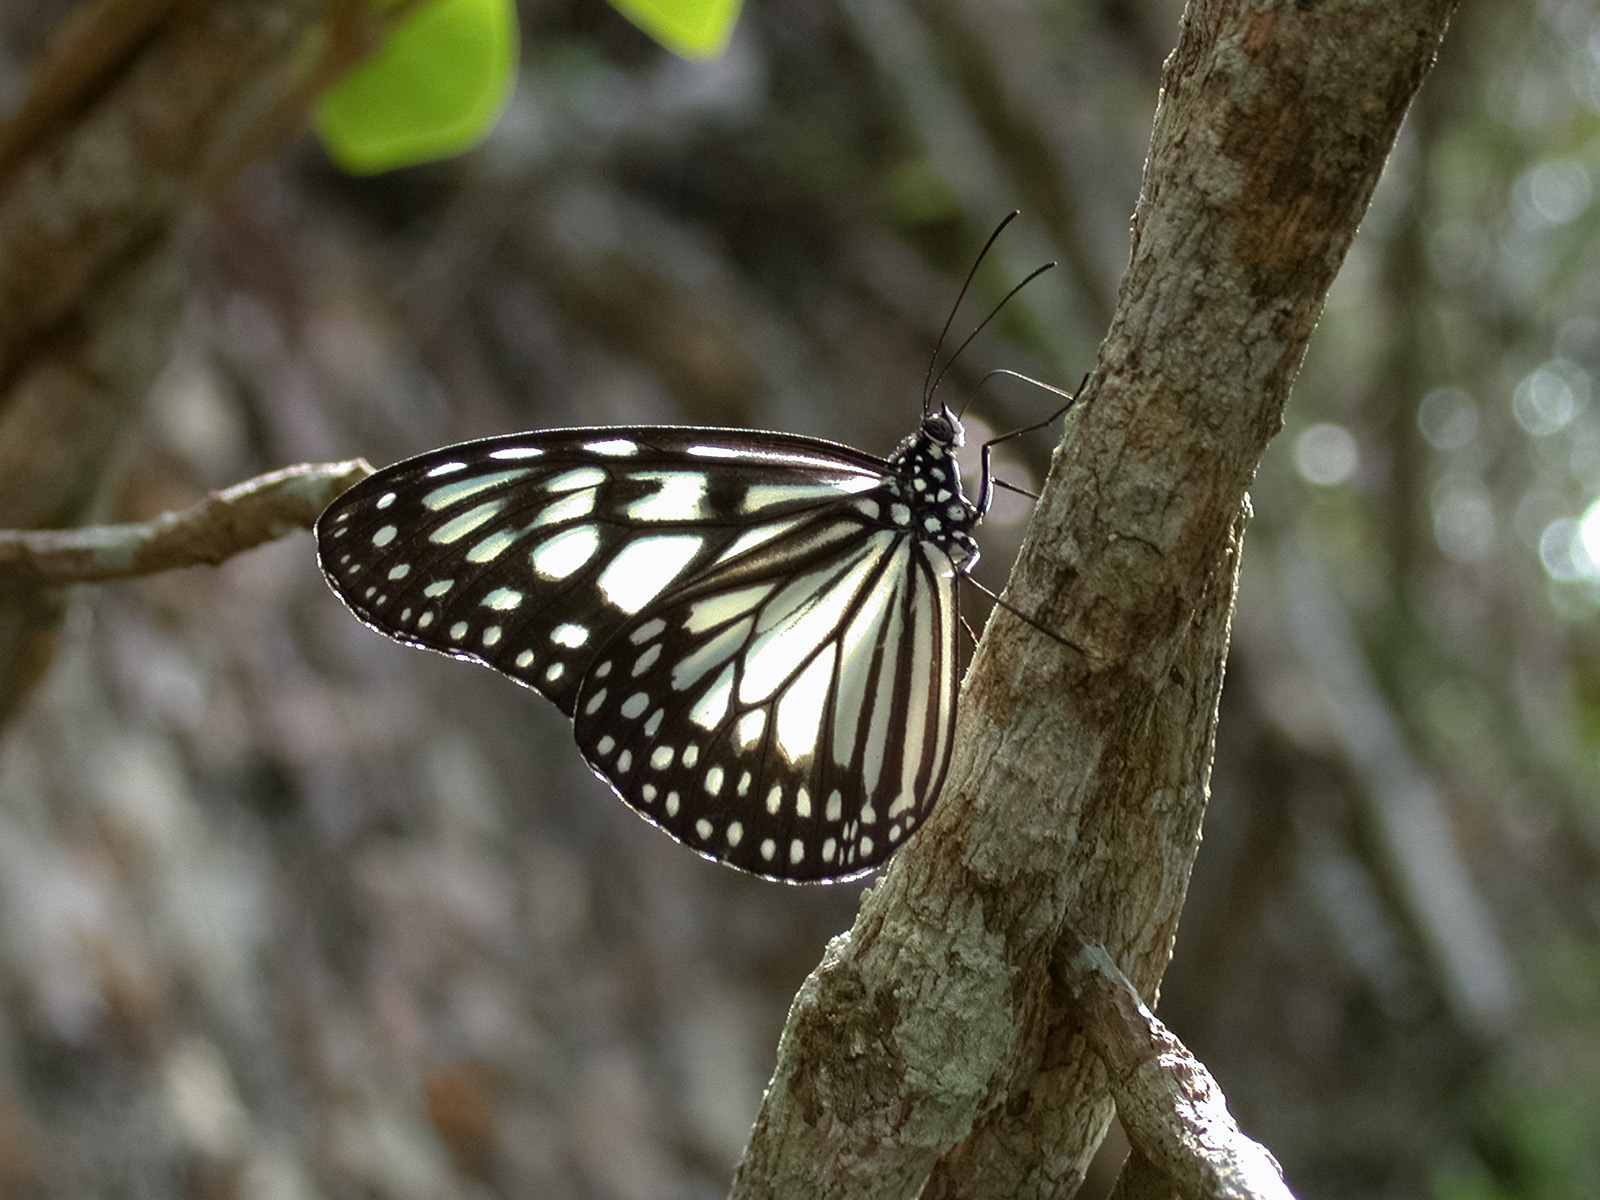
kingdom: Animalia
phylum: Arthropoda
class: Insecta
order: Lepidoptera
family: Nymphalidae
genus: Ideopsis
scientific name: Ideopsis juventa
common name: Grey glassy tiger
